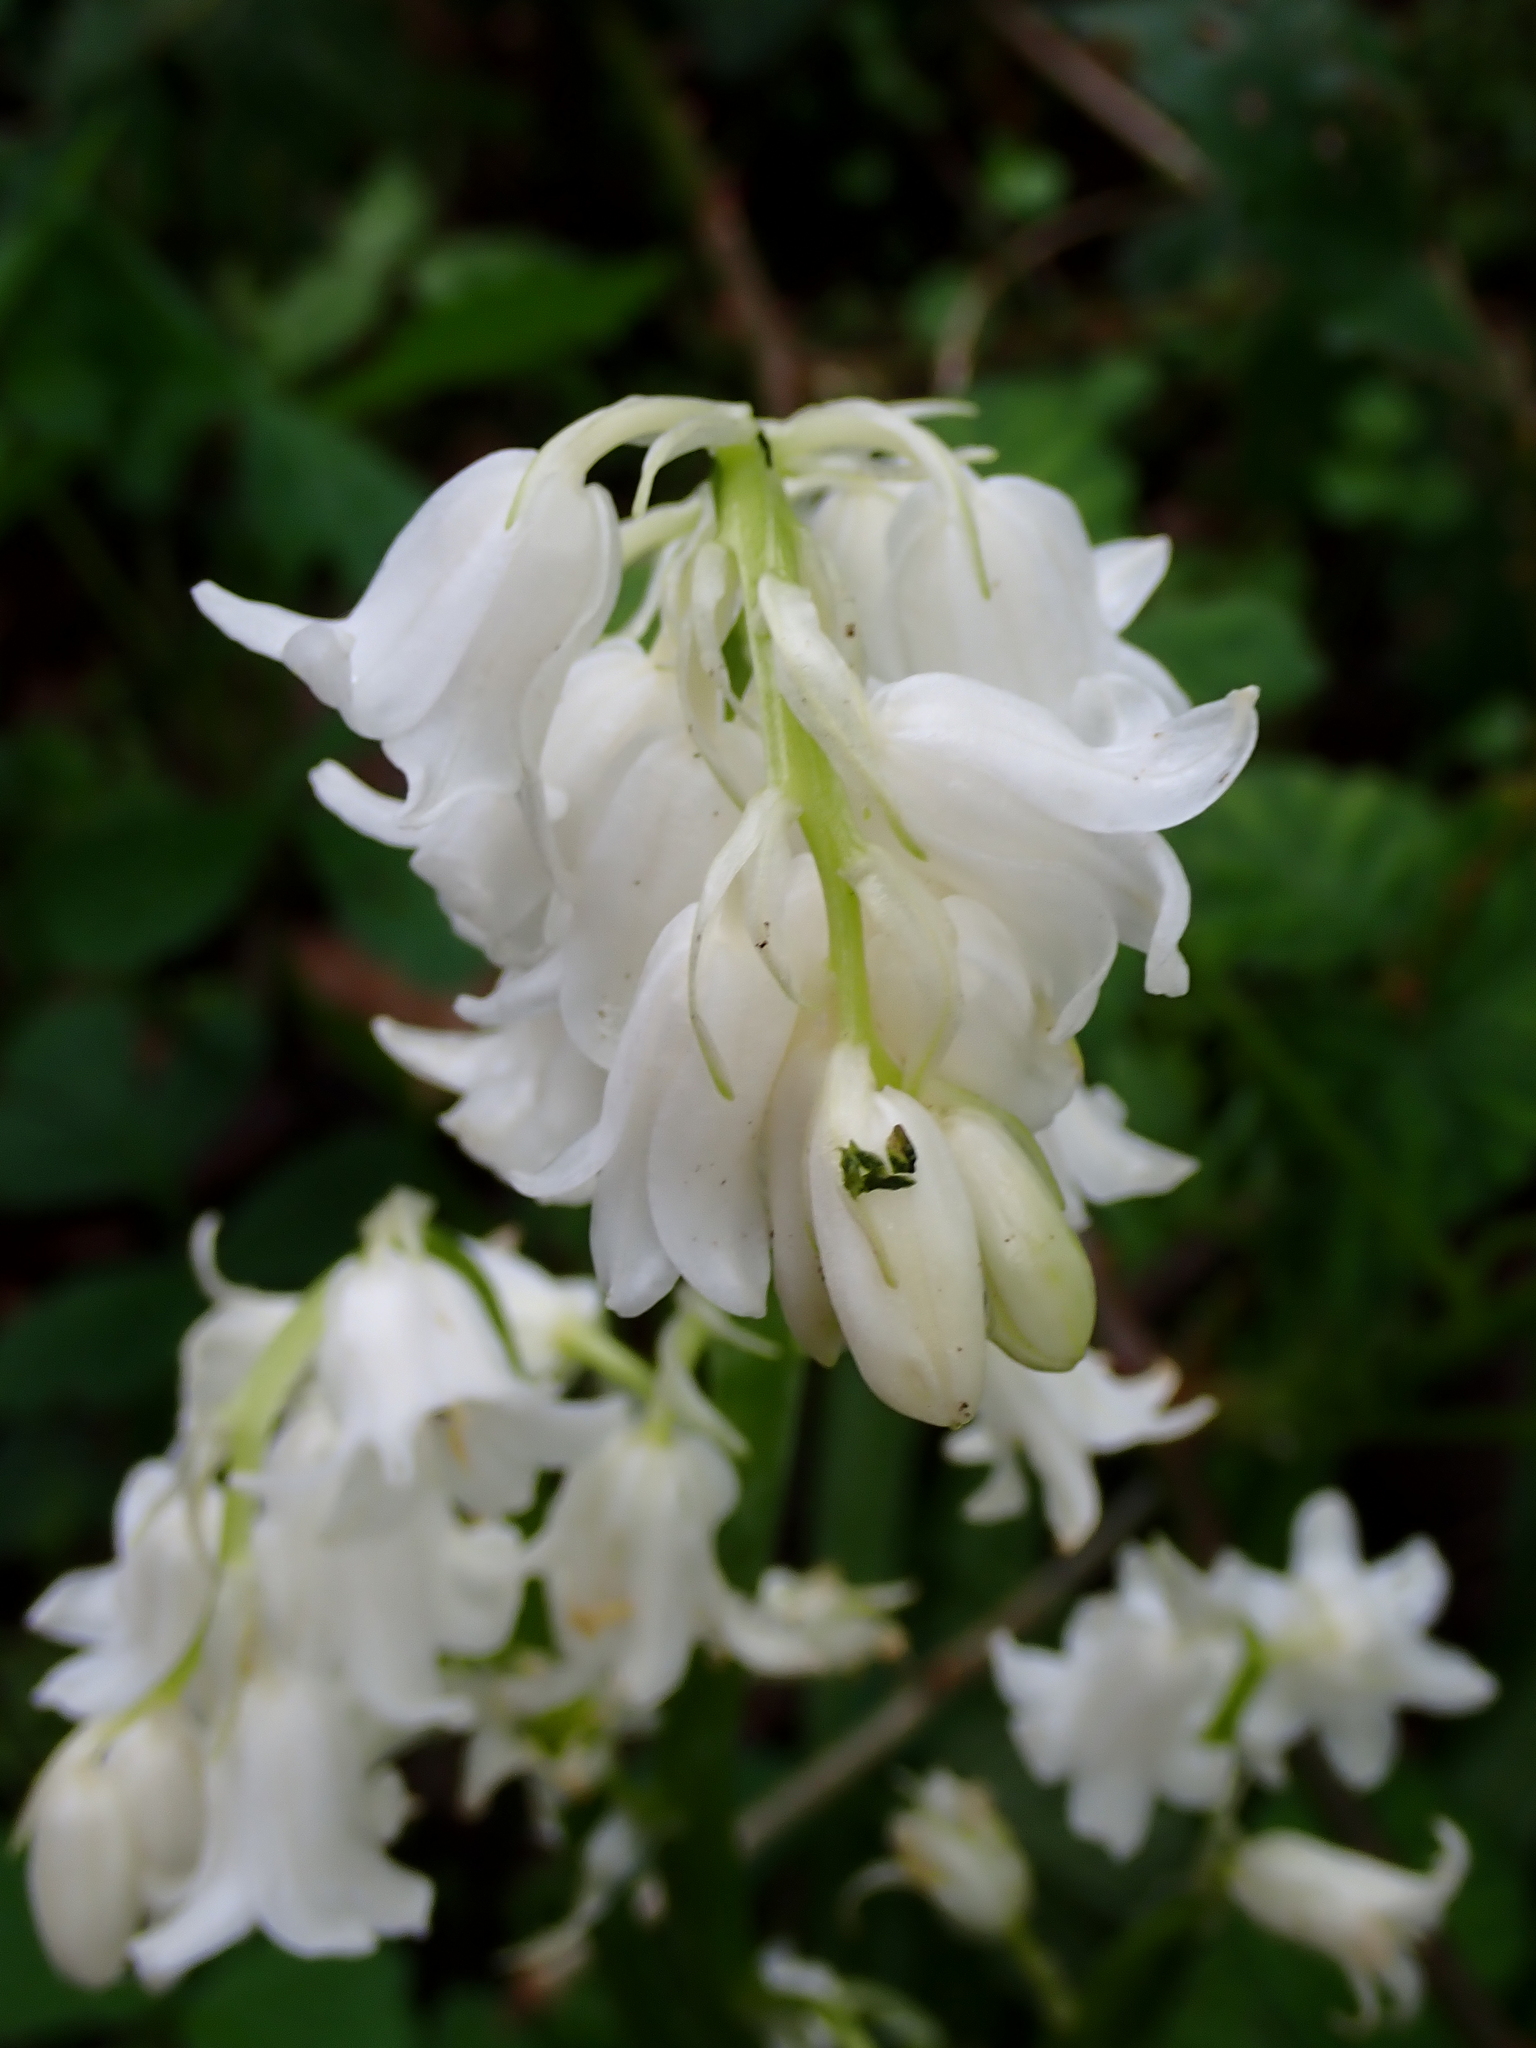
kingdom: Plantae
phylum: Tracheophyta
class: Liliopsida
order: Asparagales
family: Asparagaceae
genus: Hyacinthoides
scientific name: Hyacinthoides massartiana
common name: Hyacinthoides
